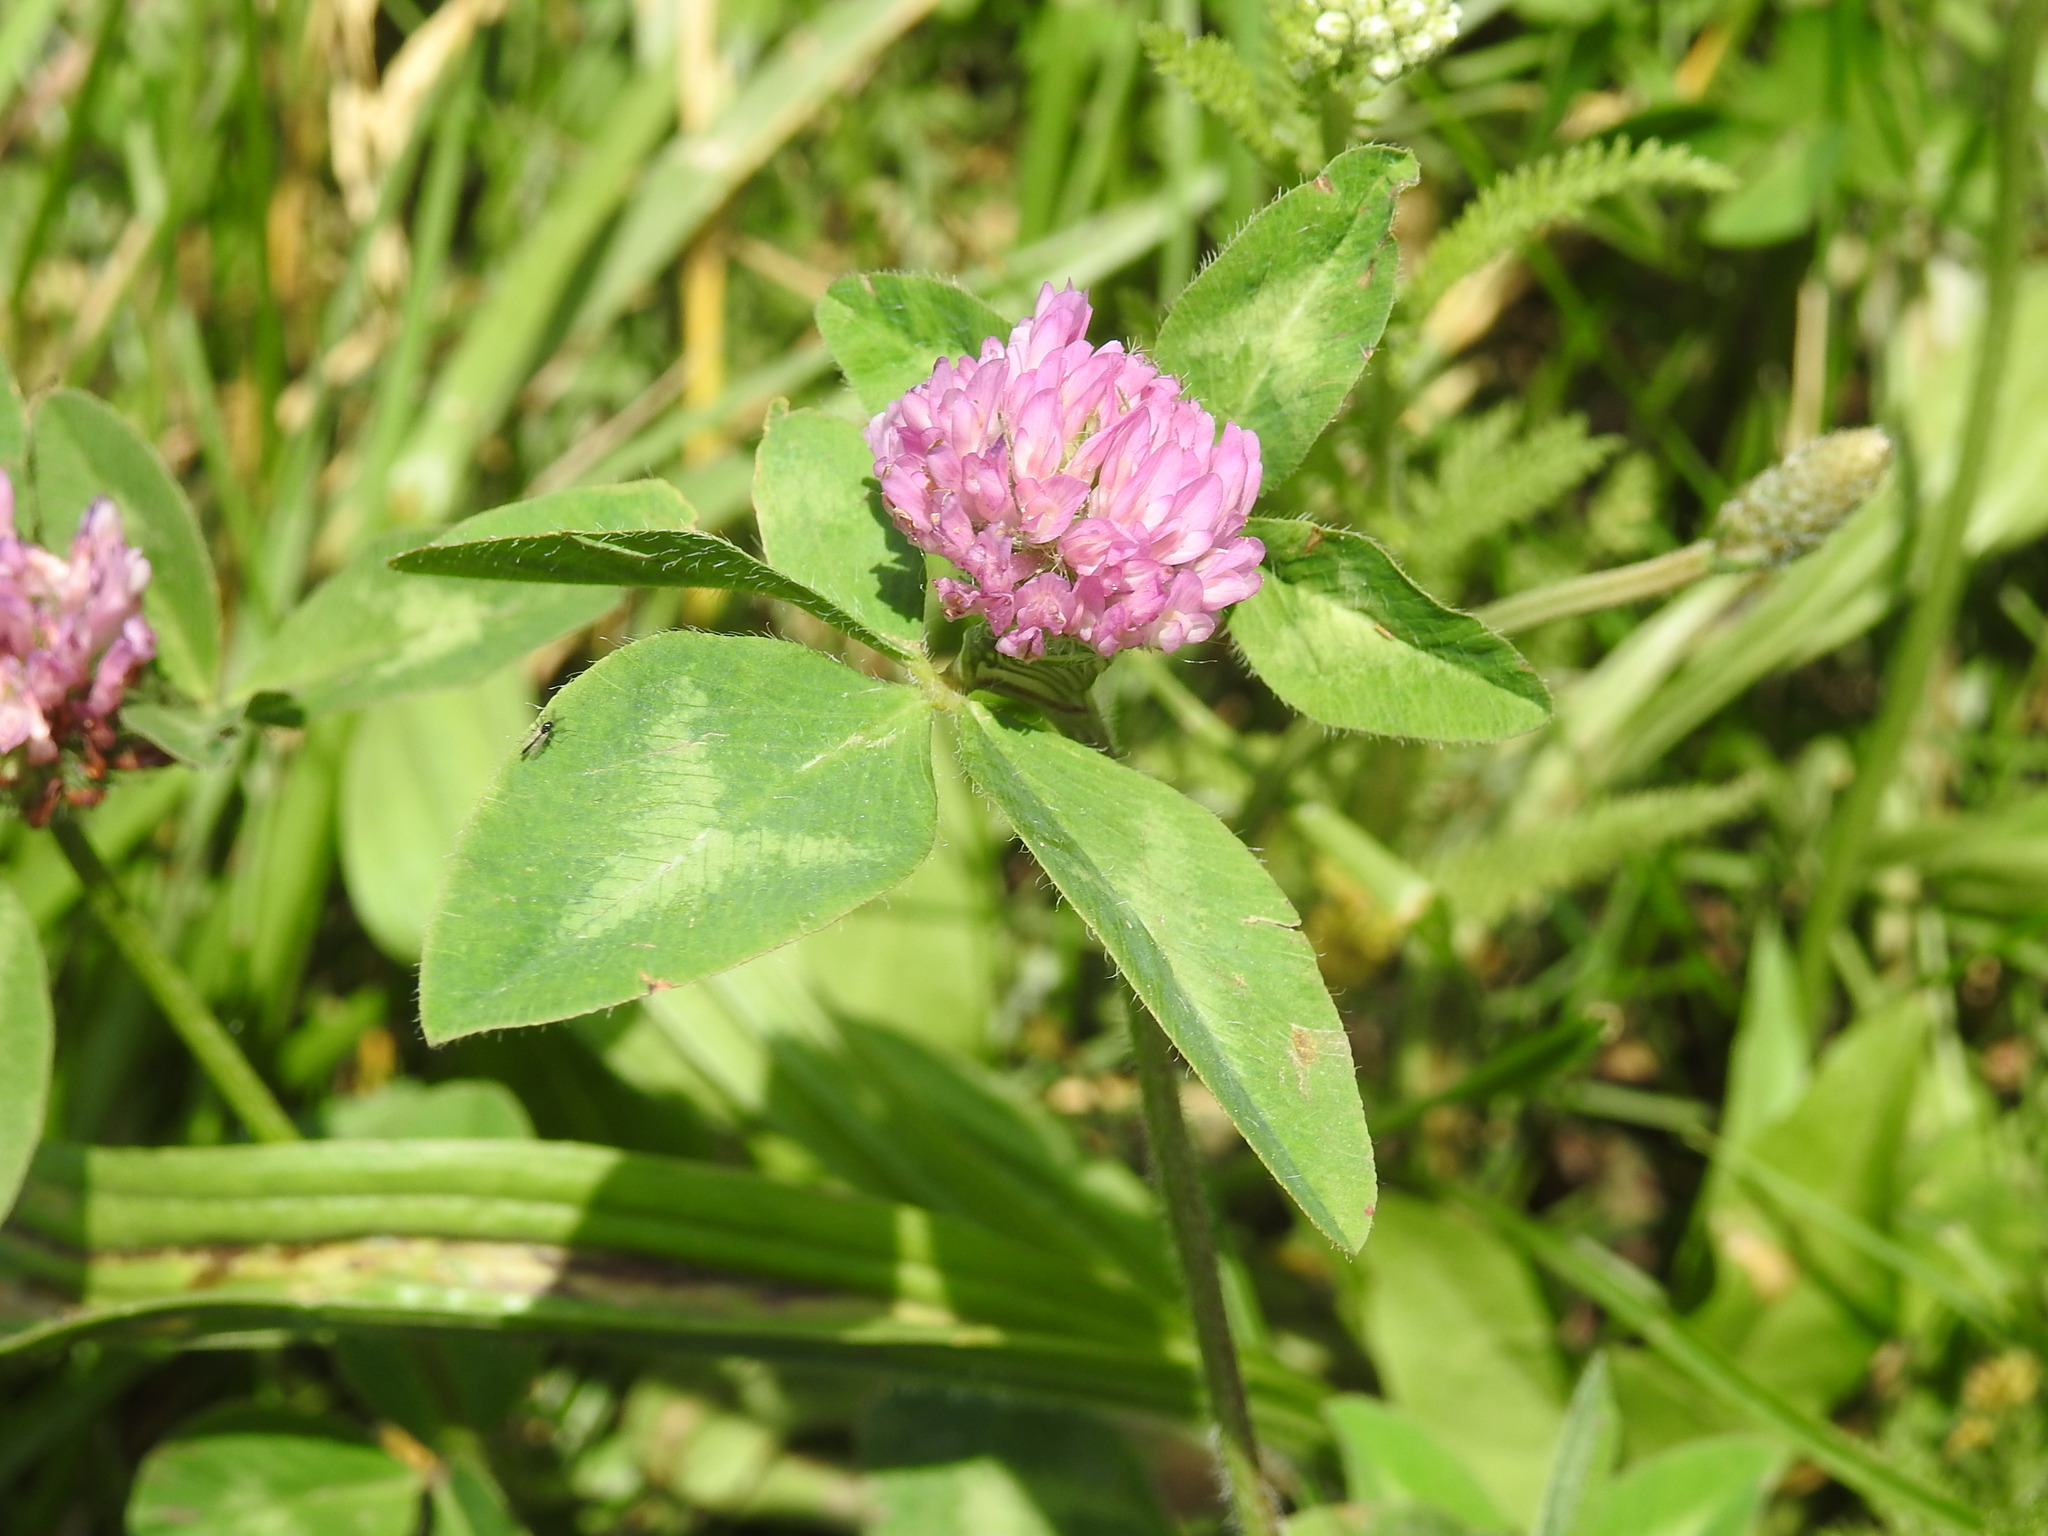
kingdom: Plantae
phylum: Tracheophyta
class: Magnoliopsida
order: Fabales
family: Fabaceae
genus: Trifolium
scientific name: Trifolium pratense
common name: Red clover
